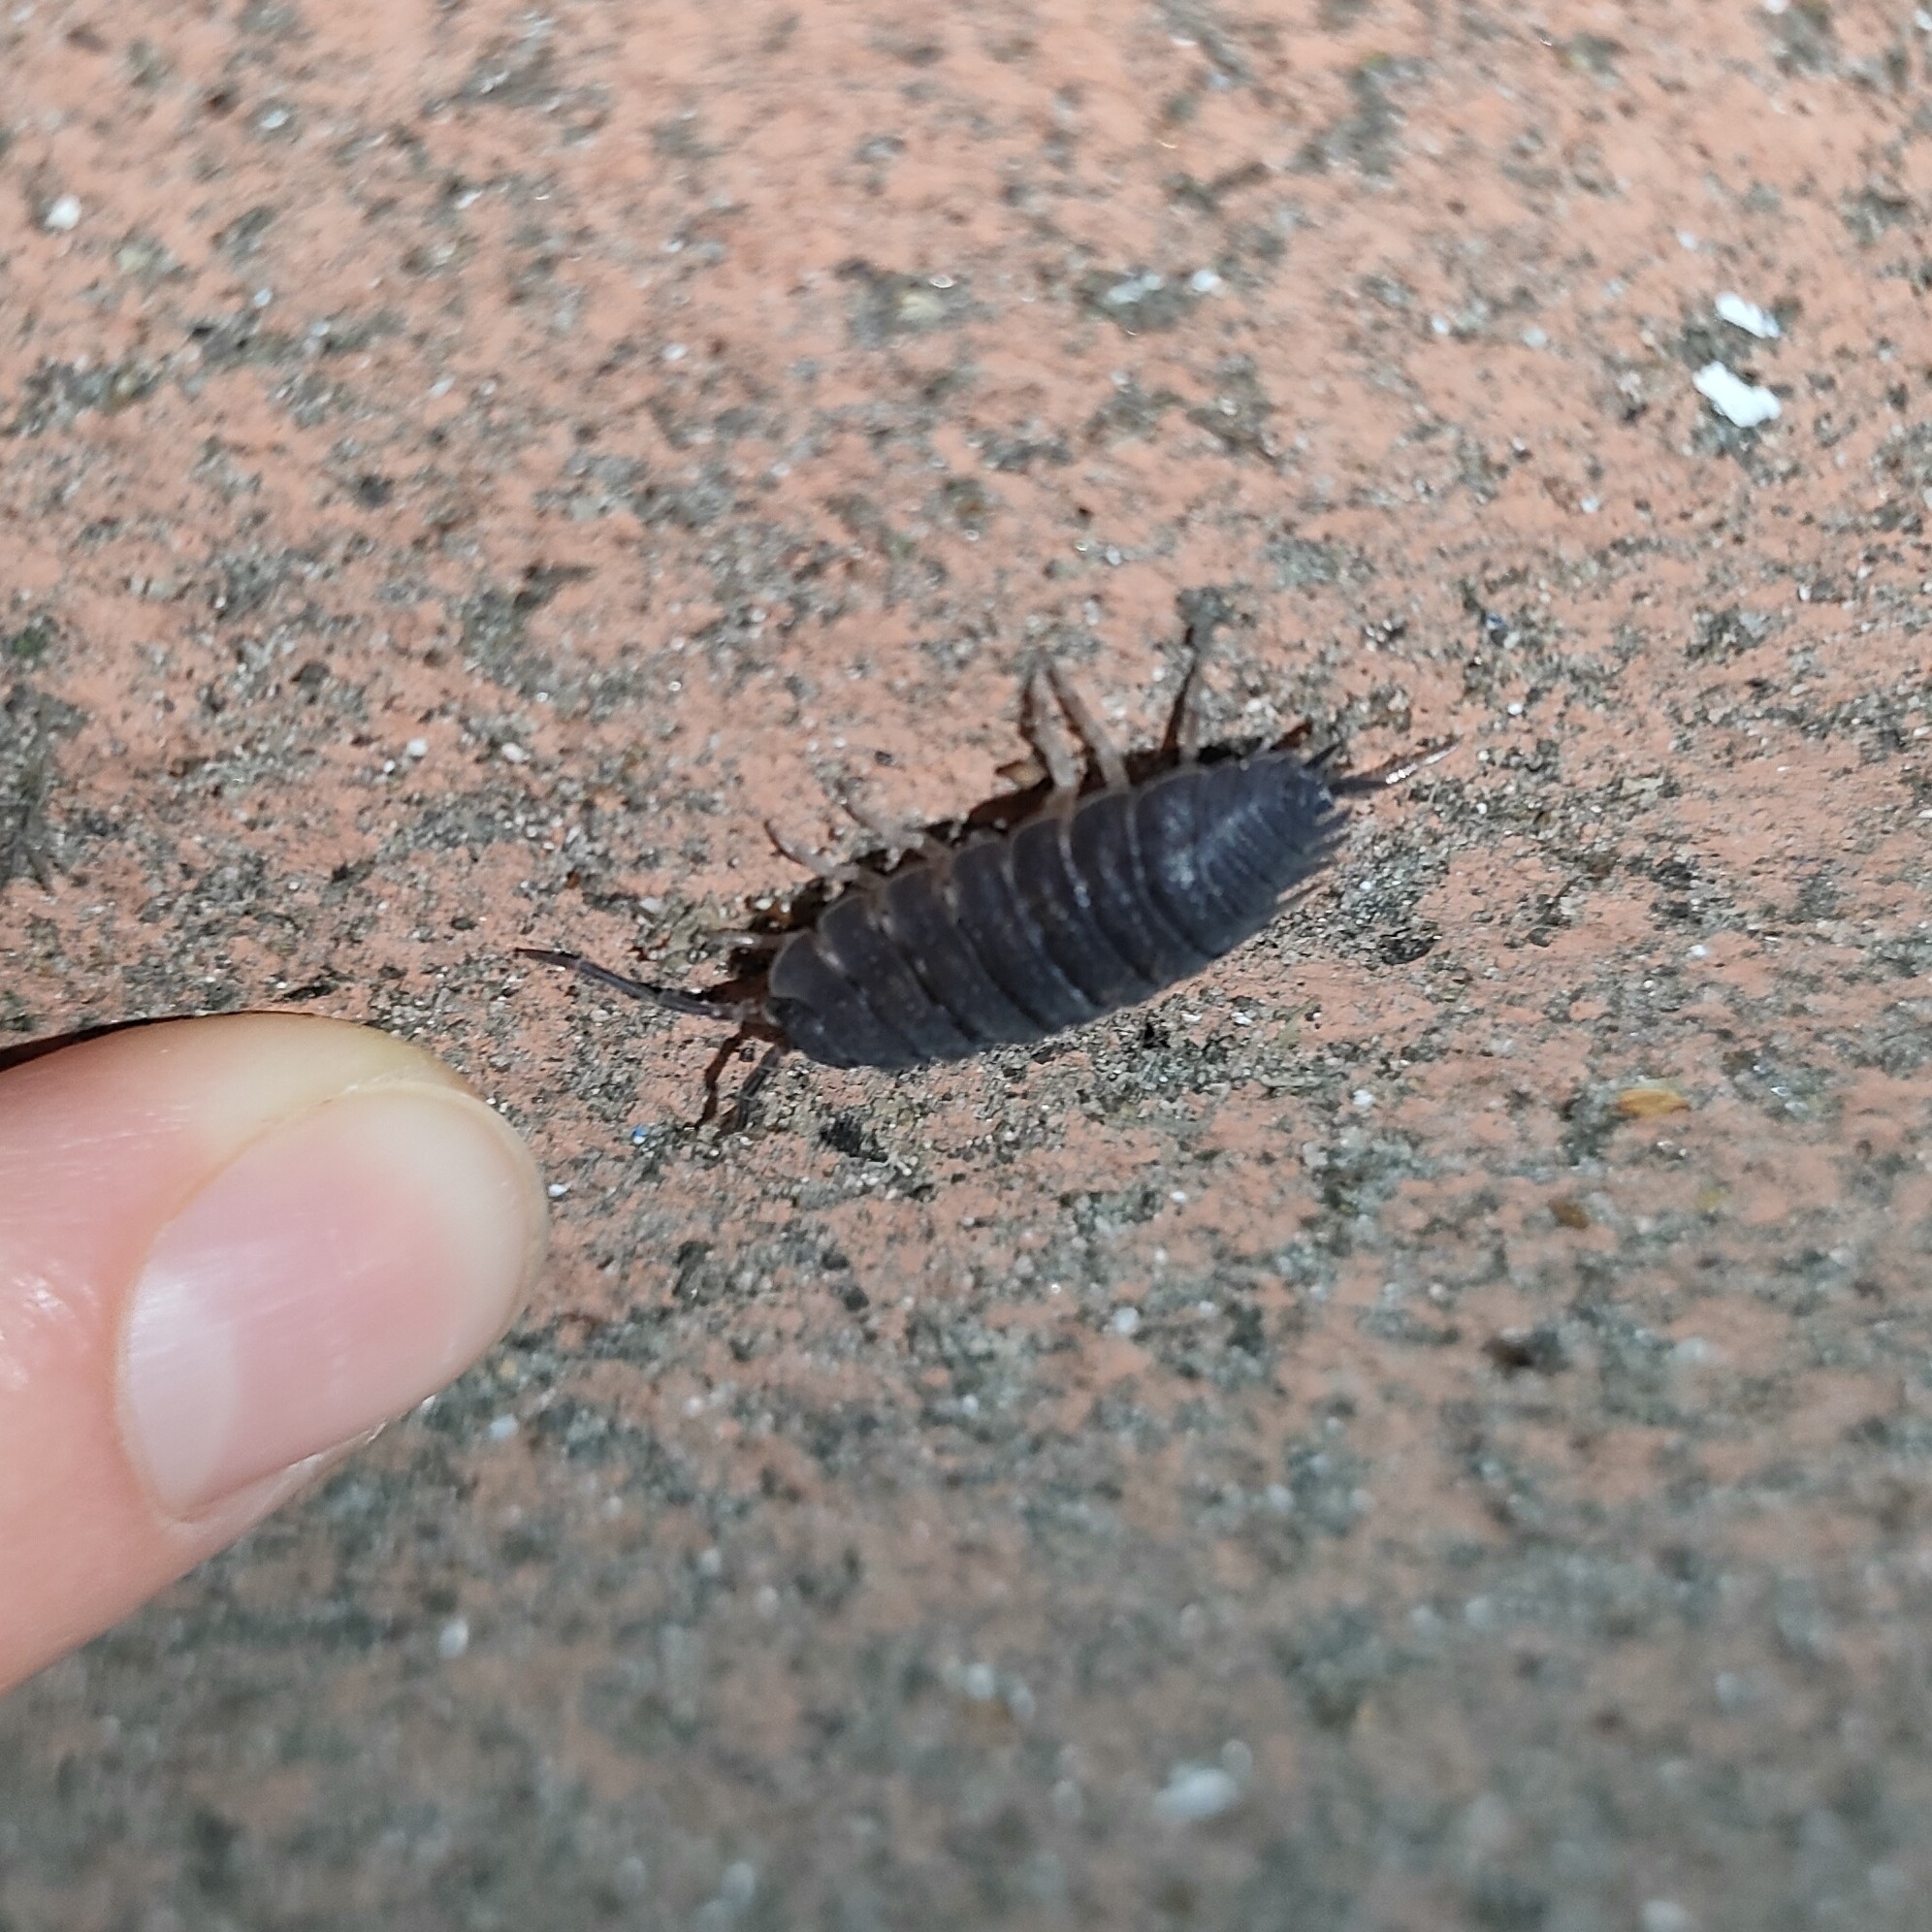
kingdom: Animalia
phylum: Arthropoda
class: Malacostraca
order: Isopoda
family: Porcellionidae
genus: Porcellio
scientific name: Porcellio scaber
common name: Common rough woodlouse
